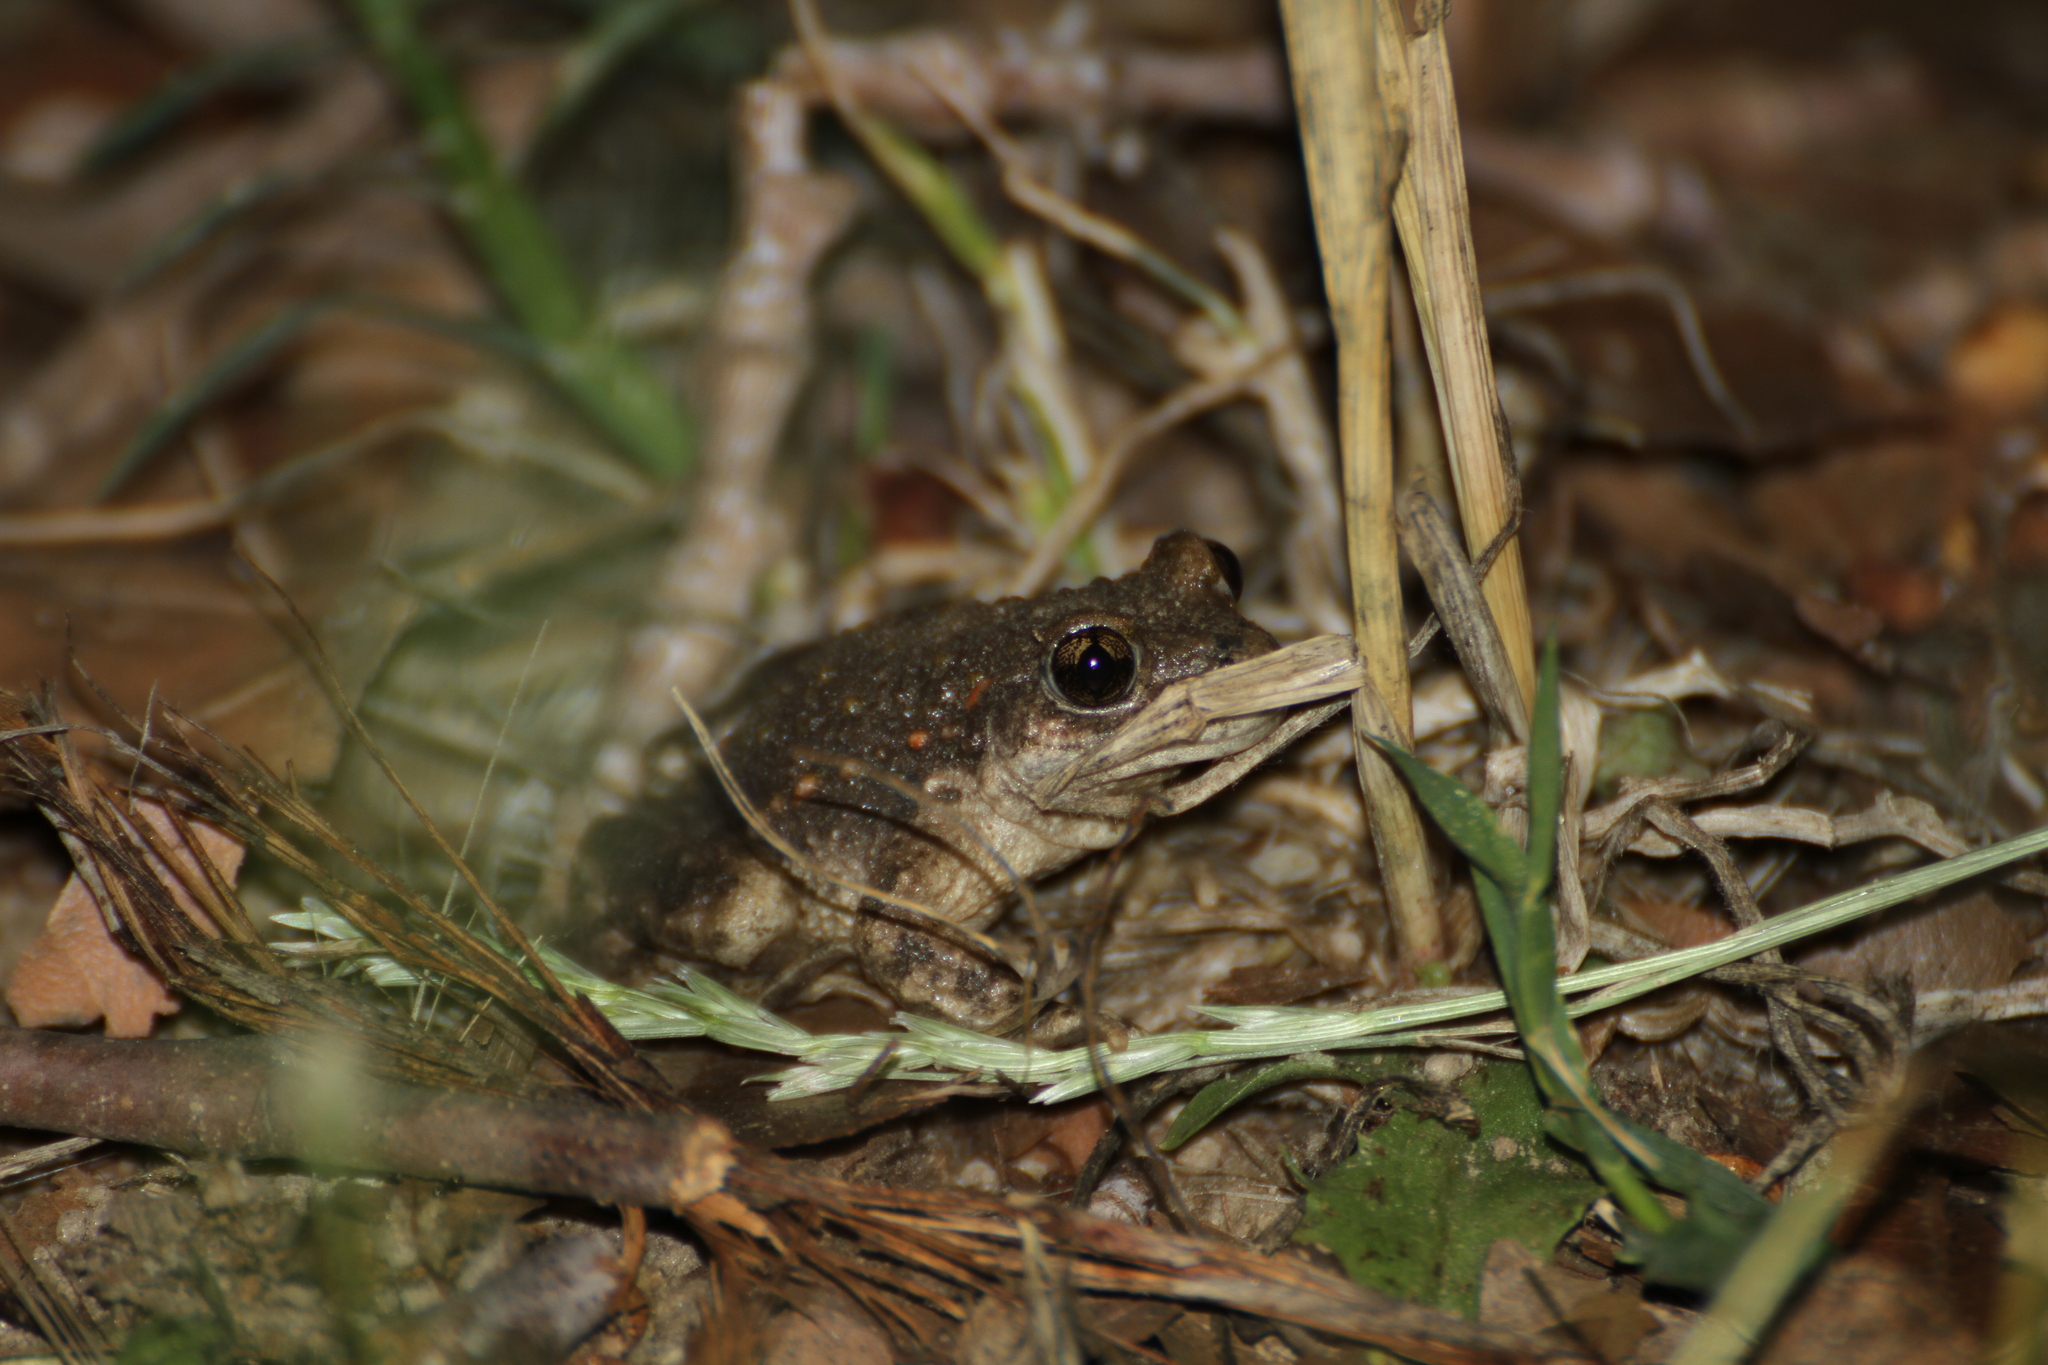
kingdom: Animalia
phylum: Chordata
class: Amphibia
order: Anura
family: Alytidae
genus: Alytes
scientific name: Alytes obstetricans
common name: Midwife toad
